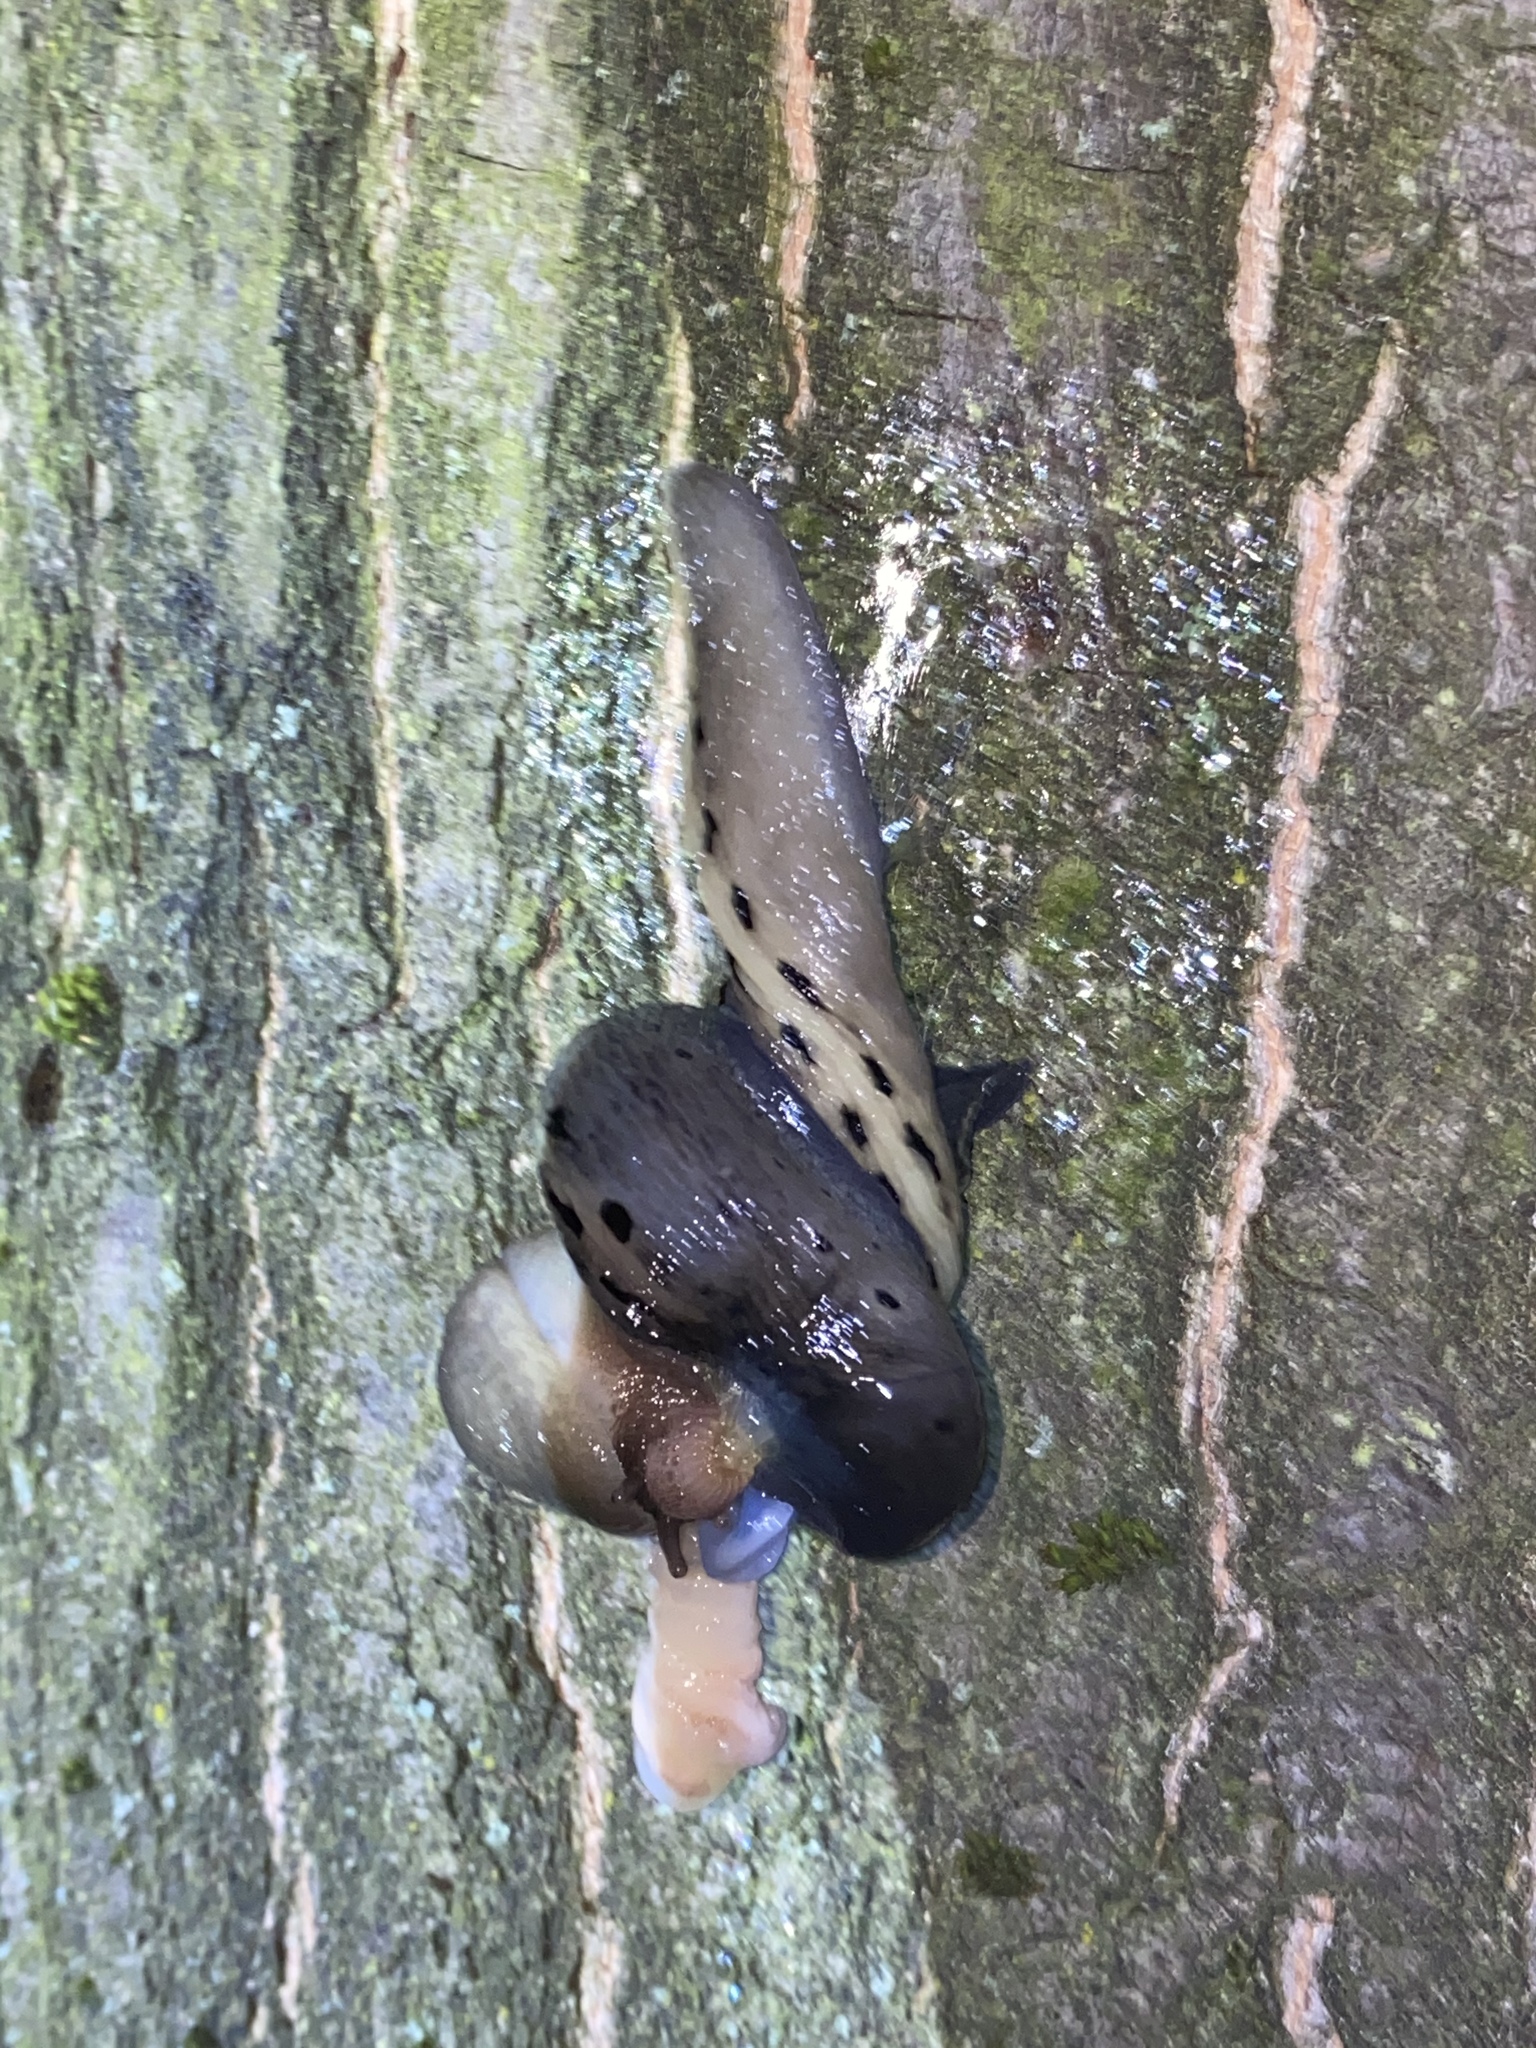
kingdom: Animalia
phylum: Mollusca
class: Gastropoda
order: Stylommatophora
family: Limacidae
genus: Limax
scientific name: Limax cinereoniger
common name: Ash-black slug
